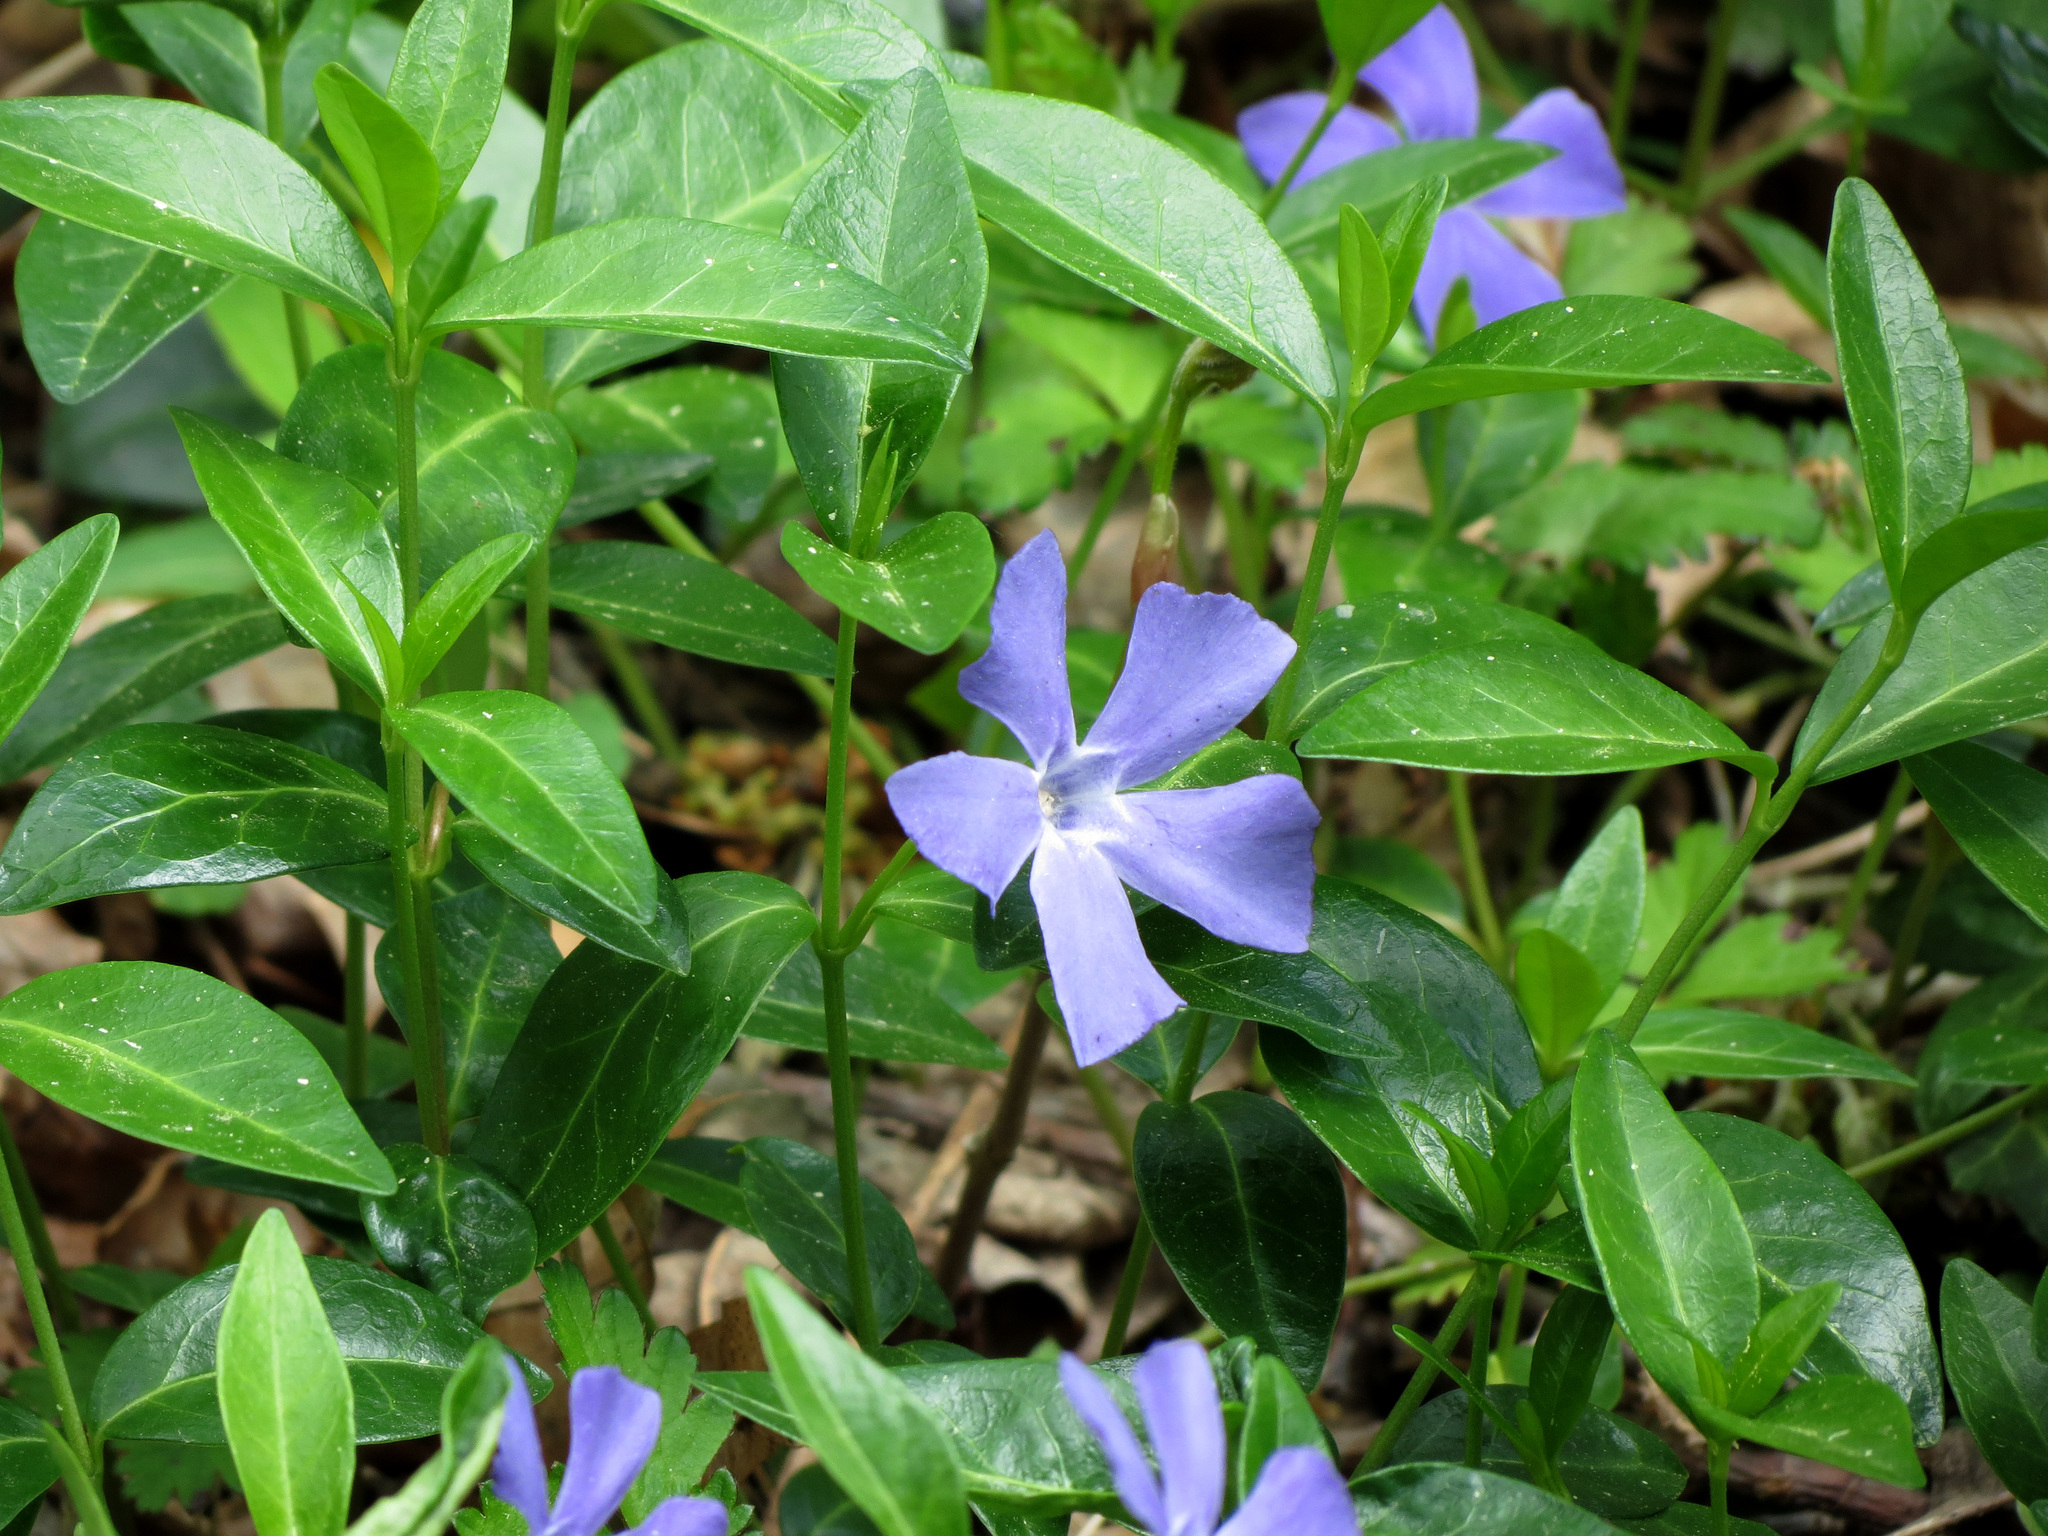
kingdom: Plantae
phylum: Tracheophyta
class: Magnoliopsida
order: Gentianales
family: Apocynaceae
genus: Vinca
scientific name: Vinca minor
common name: Lesser periwinkle
